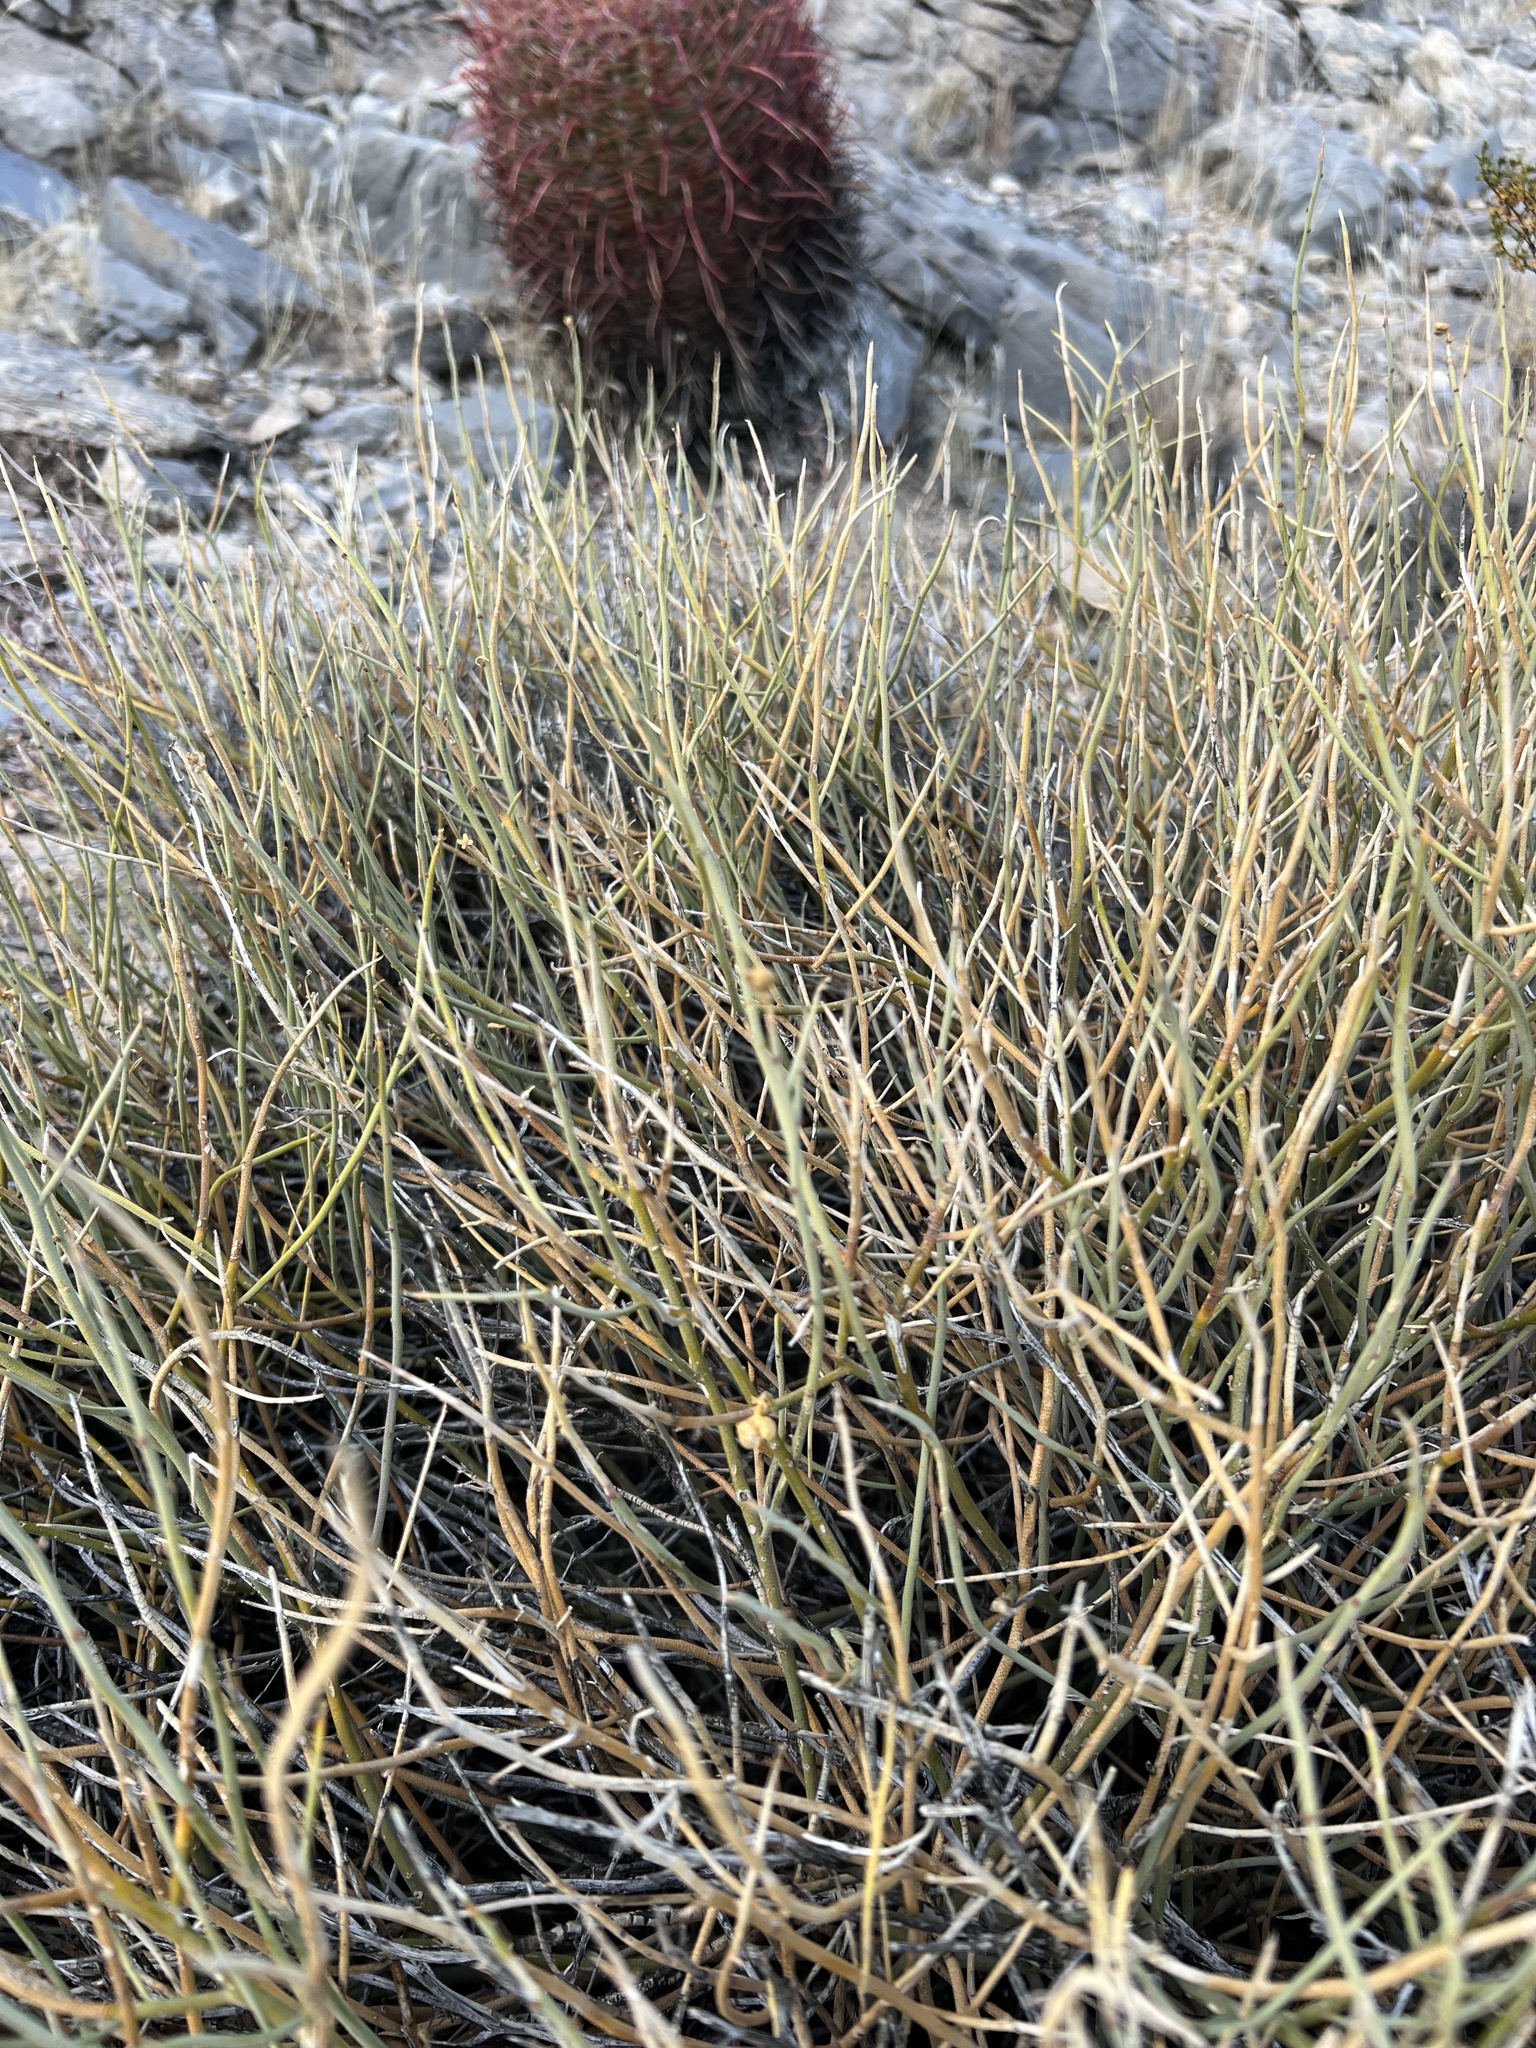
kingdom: Plantae
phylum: Tracheophyta
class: Magnoliopsida
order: Sapindales
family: Rutaceae
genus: Thamnosma
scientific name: Thamnosma montana
